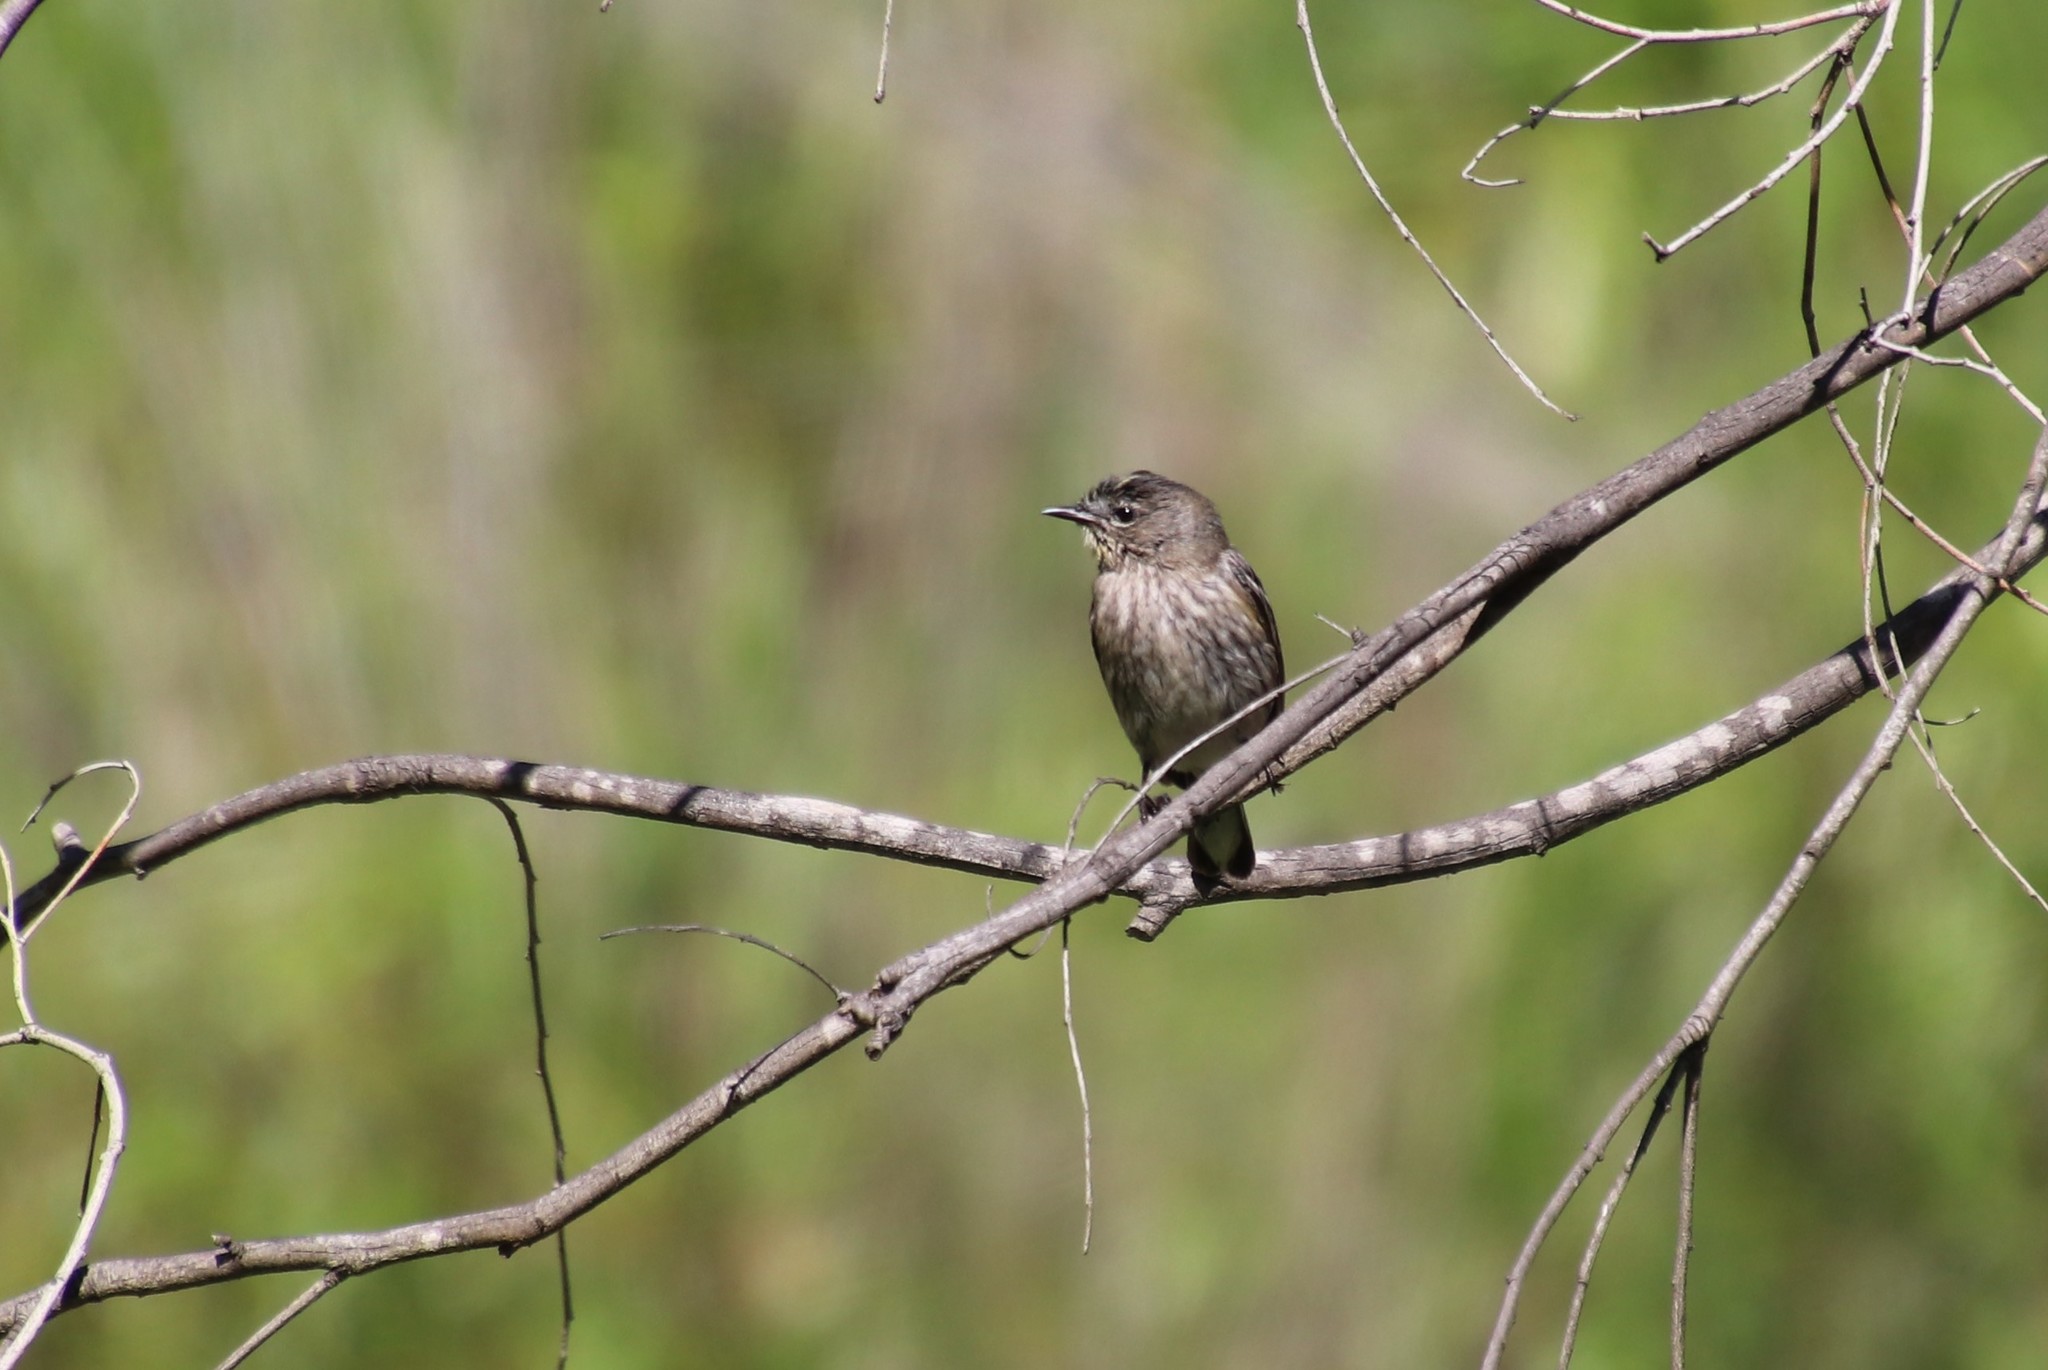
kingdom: Animalia
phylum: Chordata
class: Aves
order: Passeriformes
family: Parulidae
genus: Setophaga
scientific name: Setophaga auduboni
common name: Audubon's warbler
